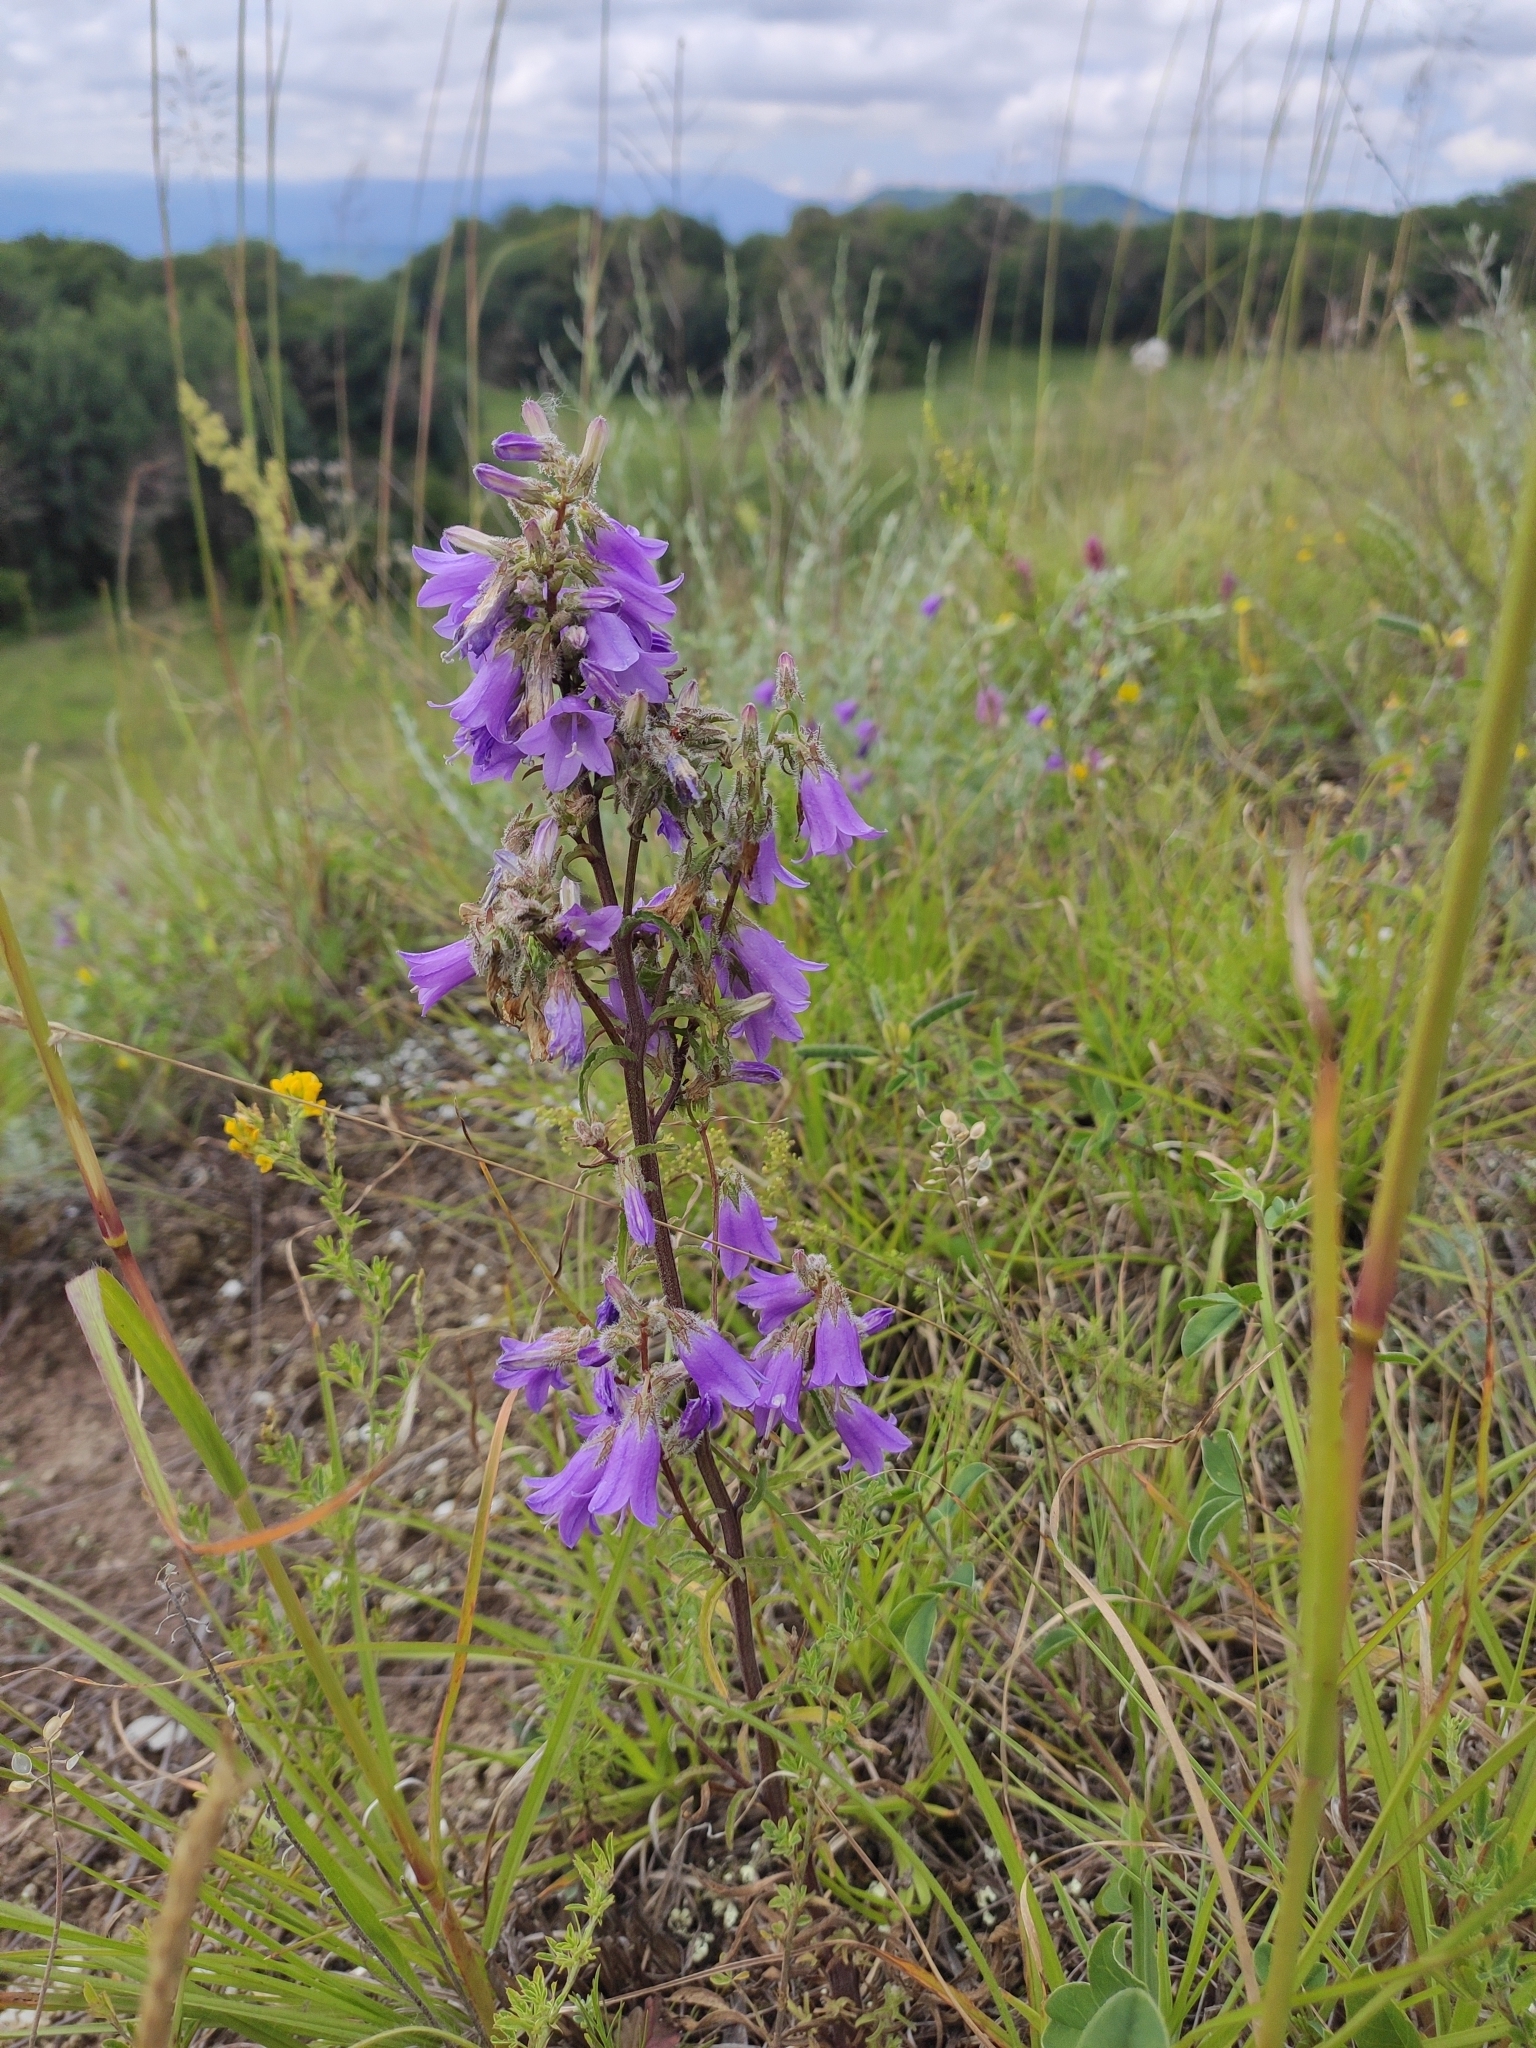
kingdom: Plantae
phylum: Tracheophyta
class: Magnoliopsida
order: Asterales
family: Campanulaceae
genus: Campanula
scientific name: Campanula sibirica
